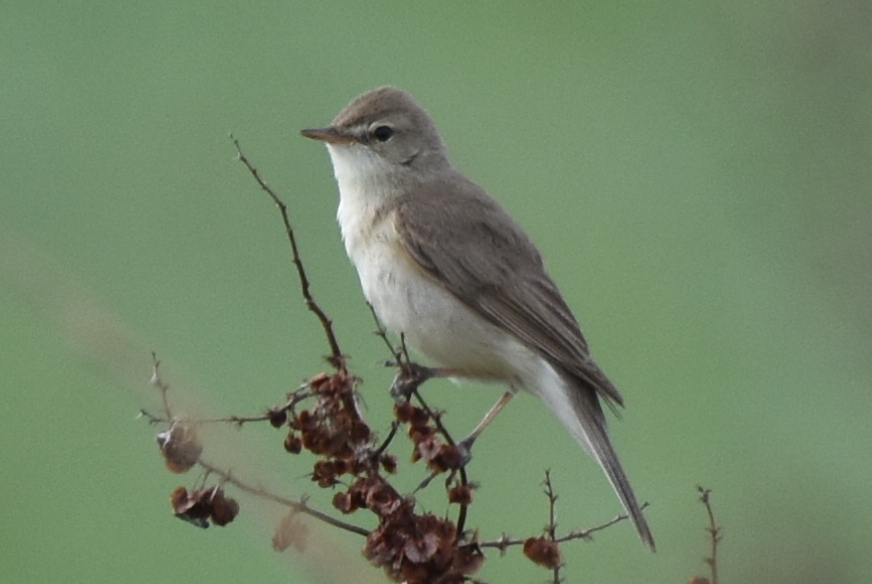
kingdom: Animalia
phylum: Chordata
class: Aves
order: Passeriformes
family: Acrocephalidae
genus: Iduna
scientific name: Iduna caligata
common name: Booted warbler
